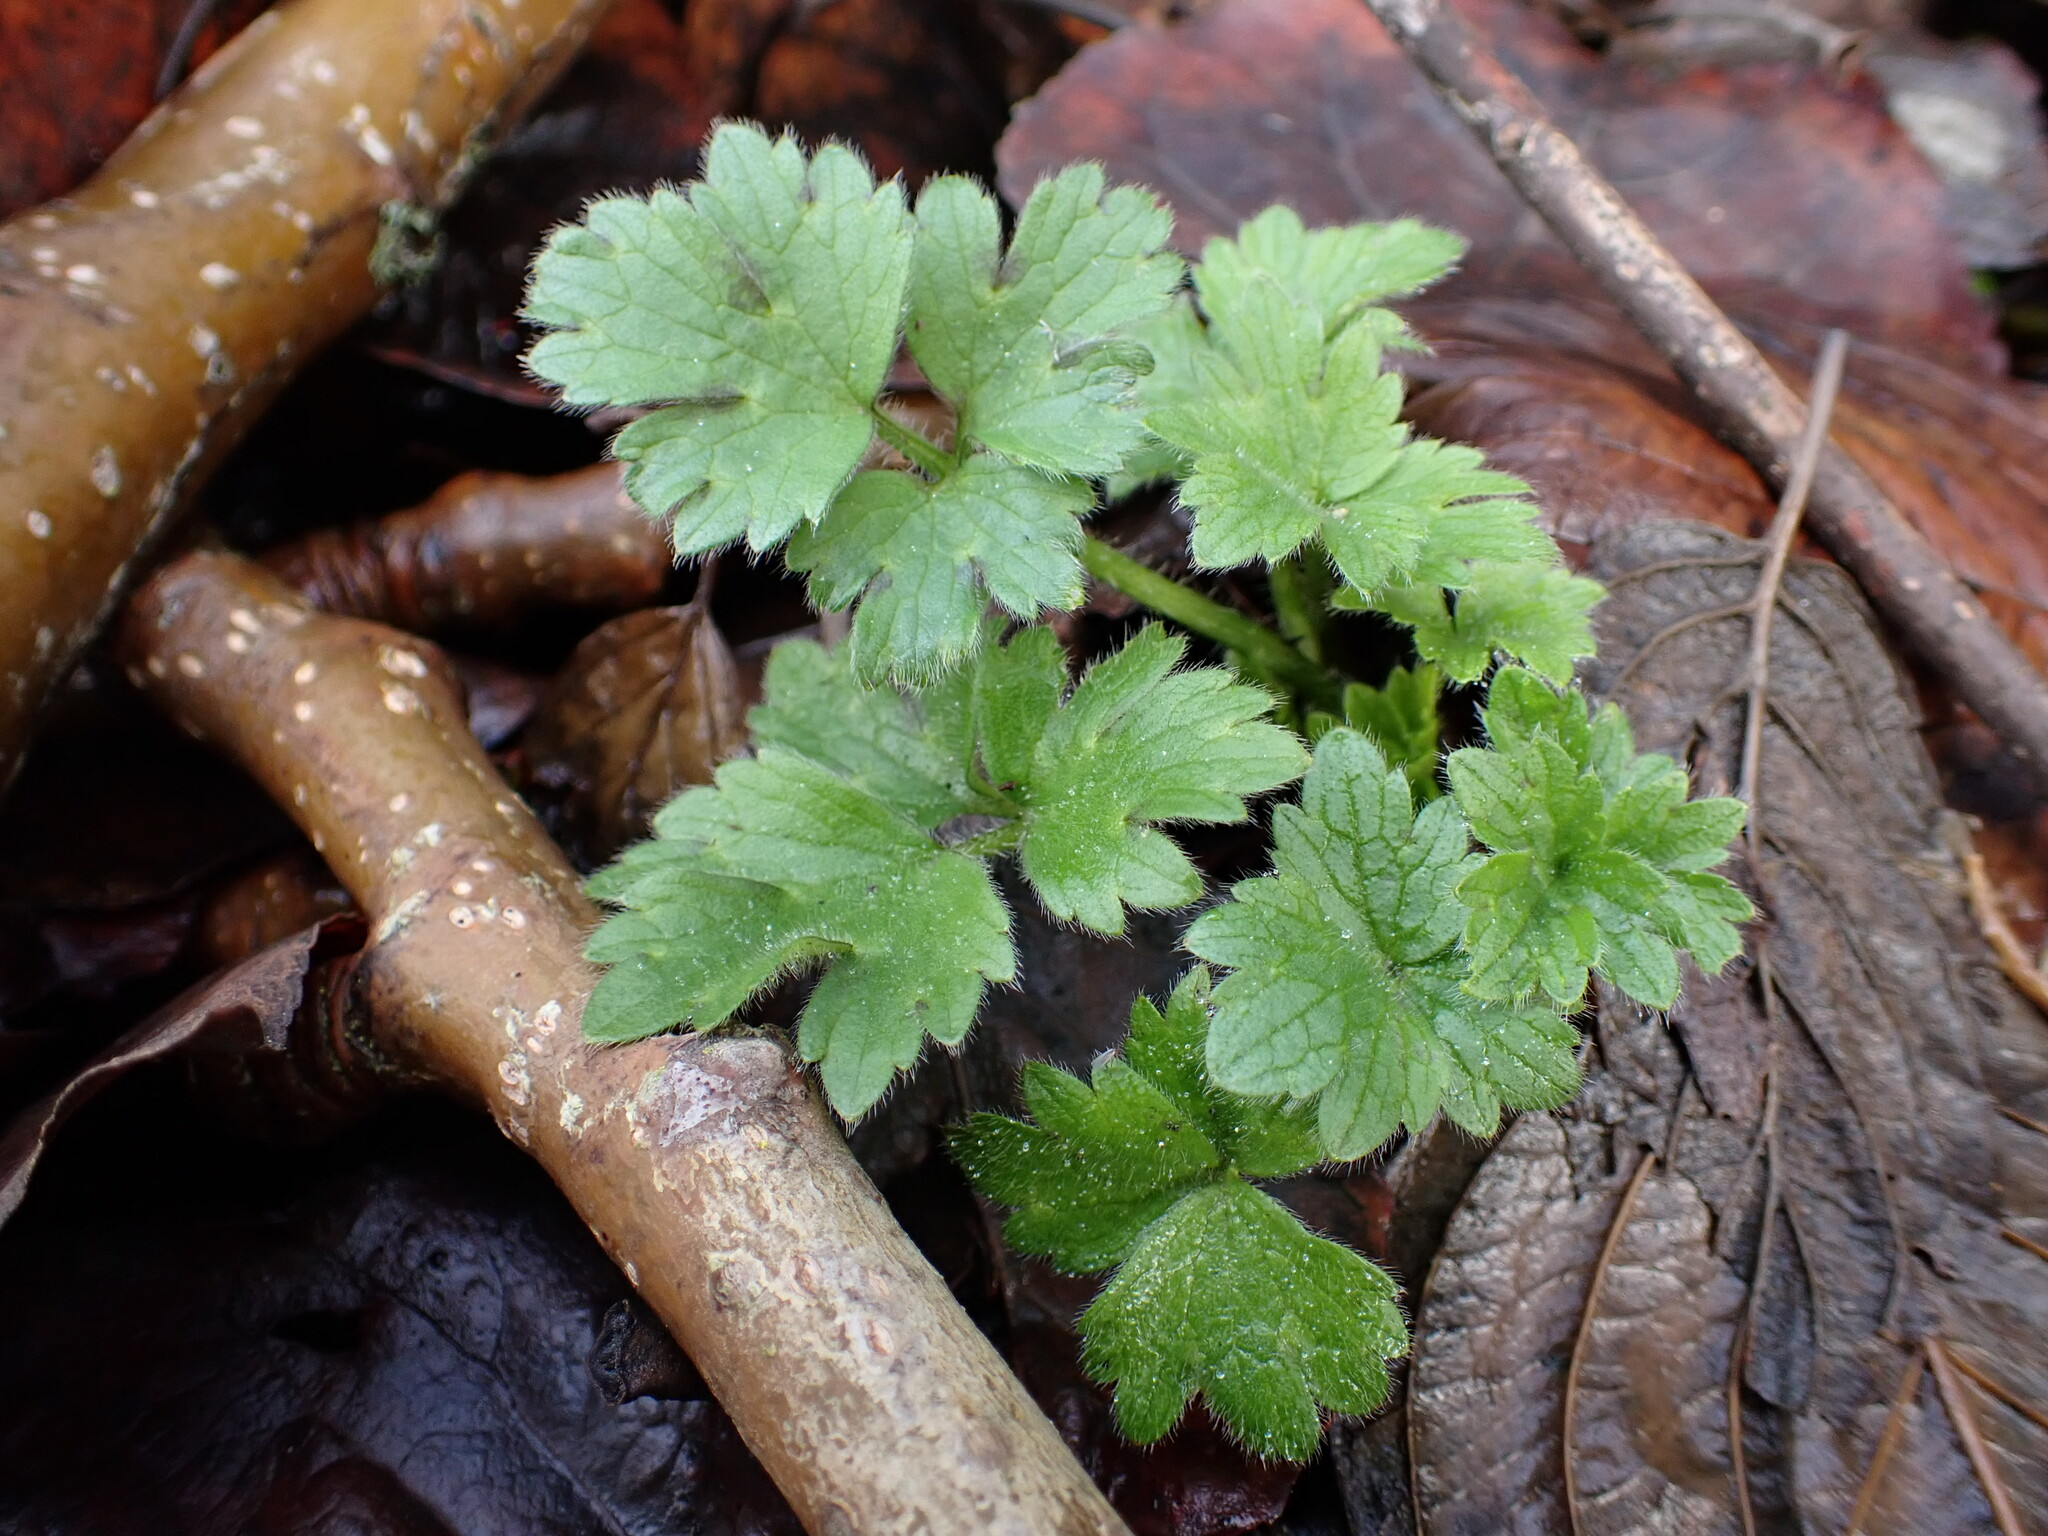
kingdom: Plantae
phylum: Tracheophyta
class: Magnoliopsida
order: Ranunculales
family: Ranunculaceae
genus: Ranunculus
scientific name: Ranunculus repens
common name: Creeping buttercup
